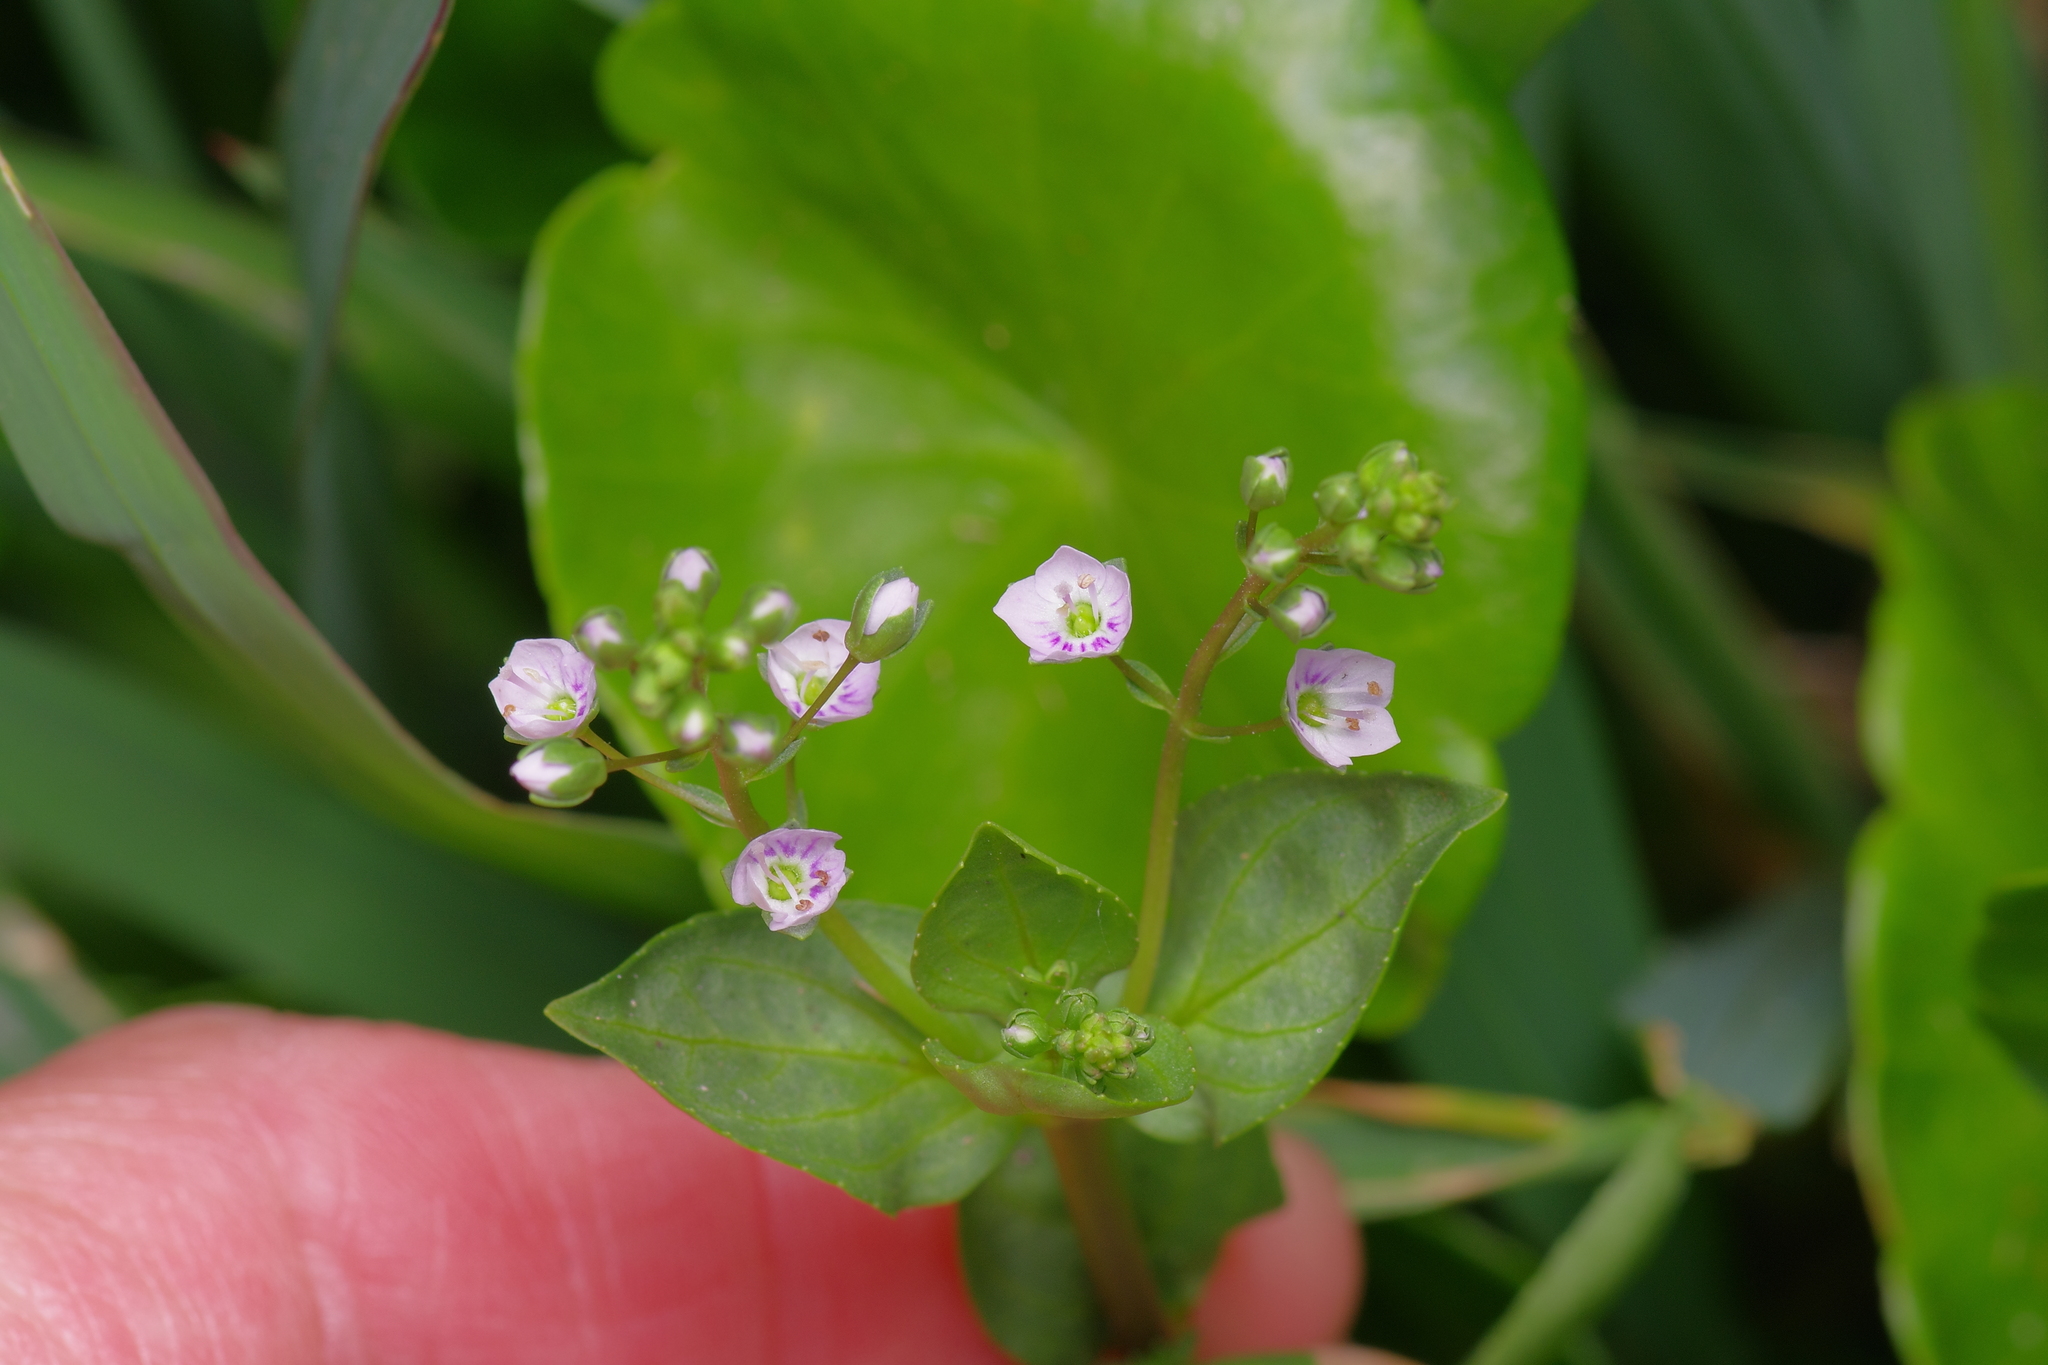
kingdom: Plantae
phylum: Tracheophyta
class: Magnoliopsida
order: Lamiales
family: Plantaginaceae
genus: Veronica
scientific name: Veronica anagallis-aquatica
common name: Water speedwell
